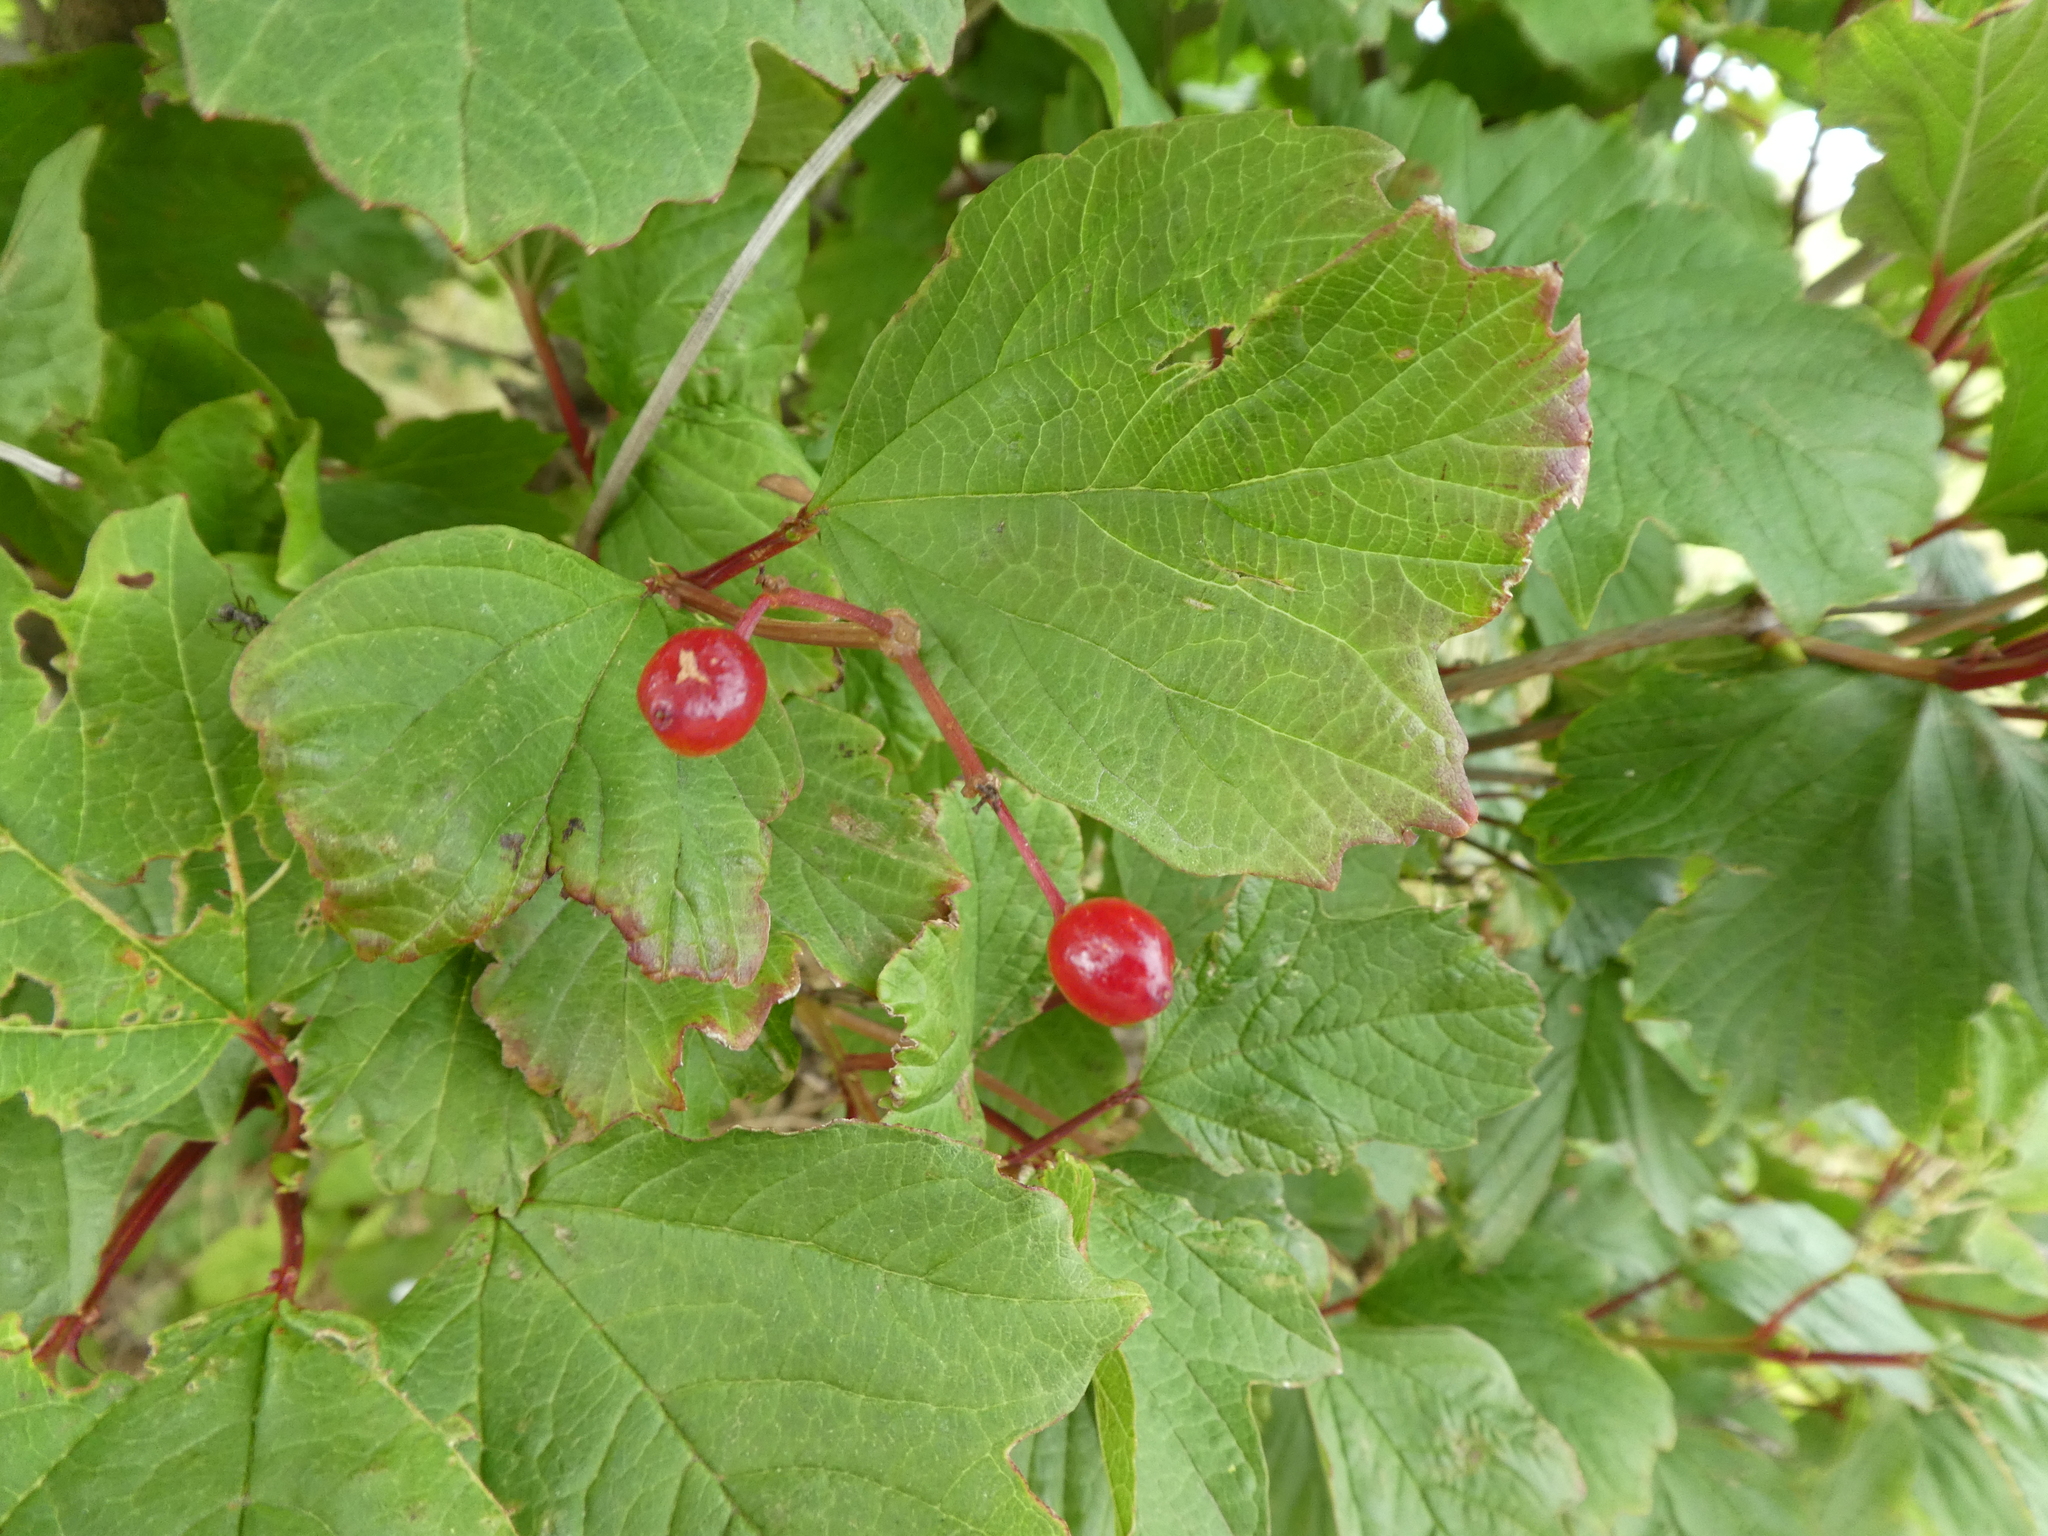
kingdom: Plantae
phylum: Tracheophyta
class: Magnoliopsida
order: Dipsacales
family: Viburnaceae
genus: Viburnum
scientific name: Viburnum opulus
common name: Guelder-rose
